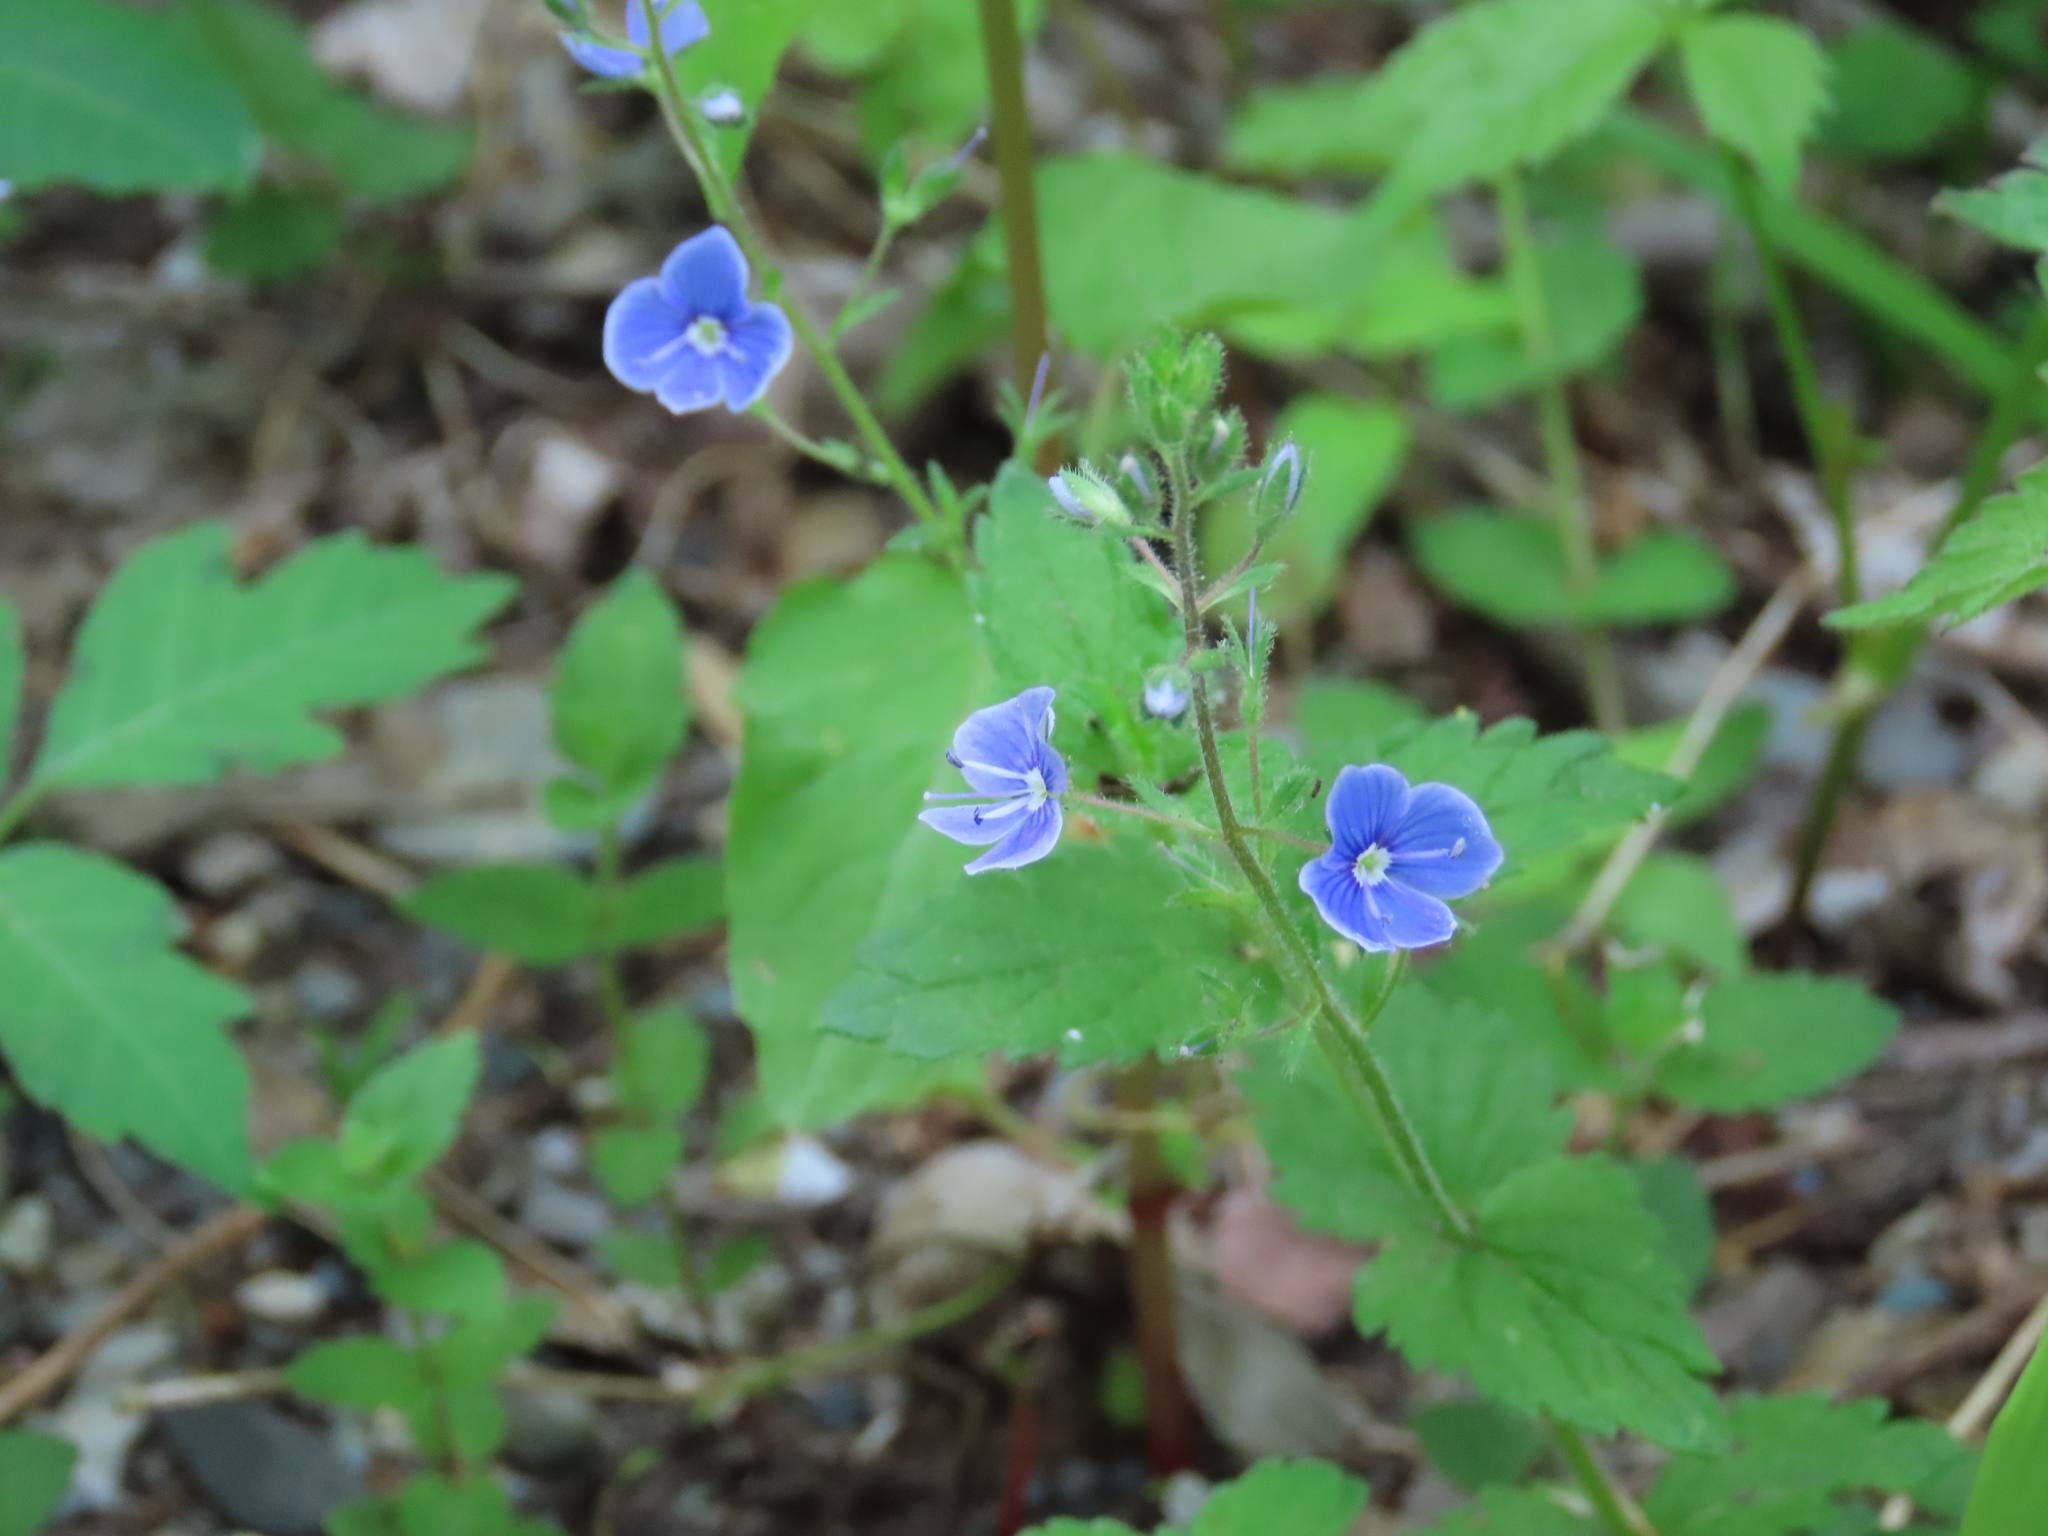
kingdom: Plantae
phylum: Tracheophyta
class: Magnoliopsida
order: Lamiales
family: Plantaginaceae
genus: Veronica
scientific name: Veronica chamaedrys
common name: Germander speedwell
